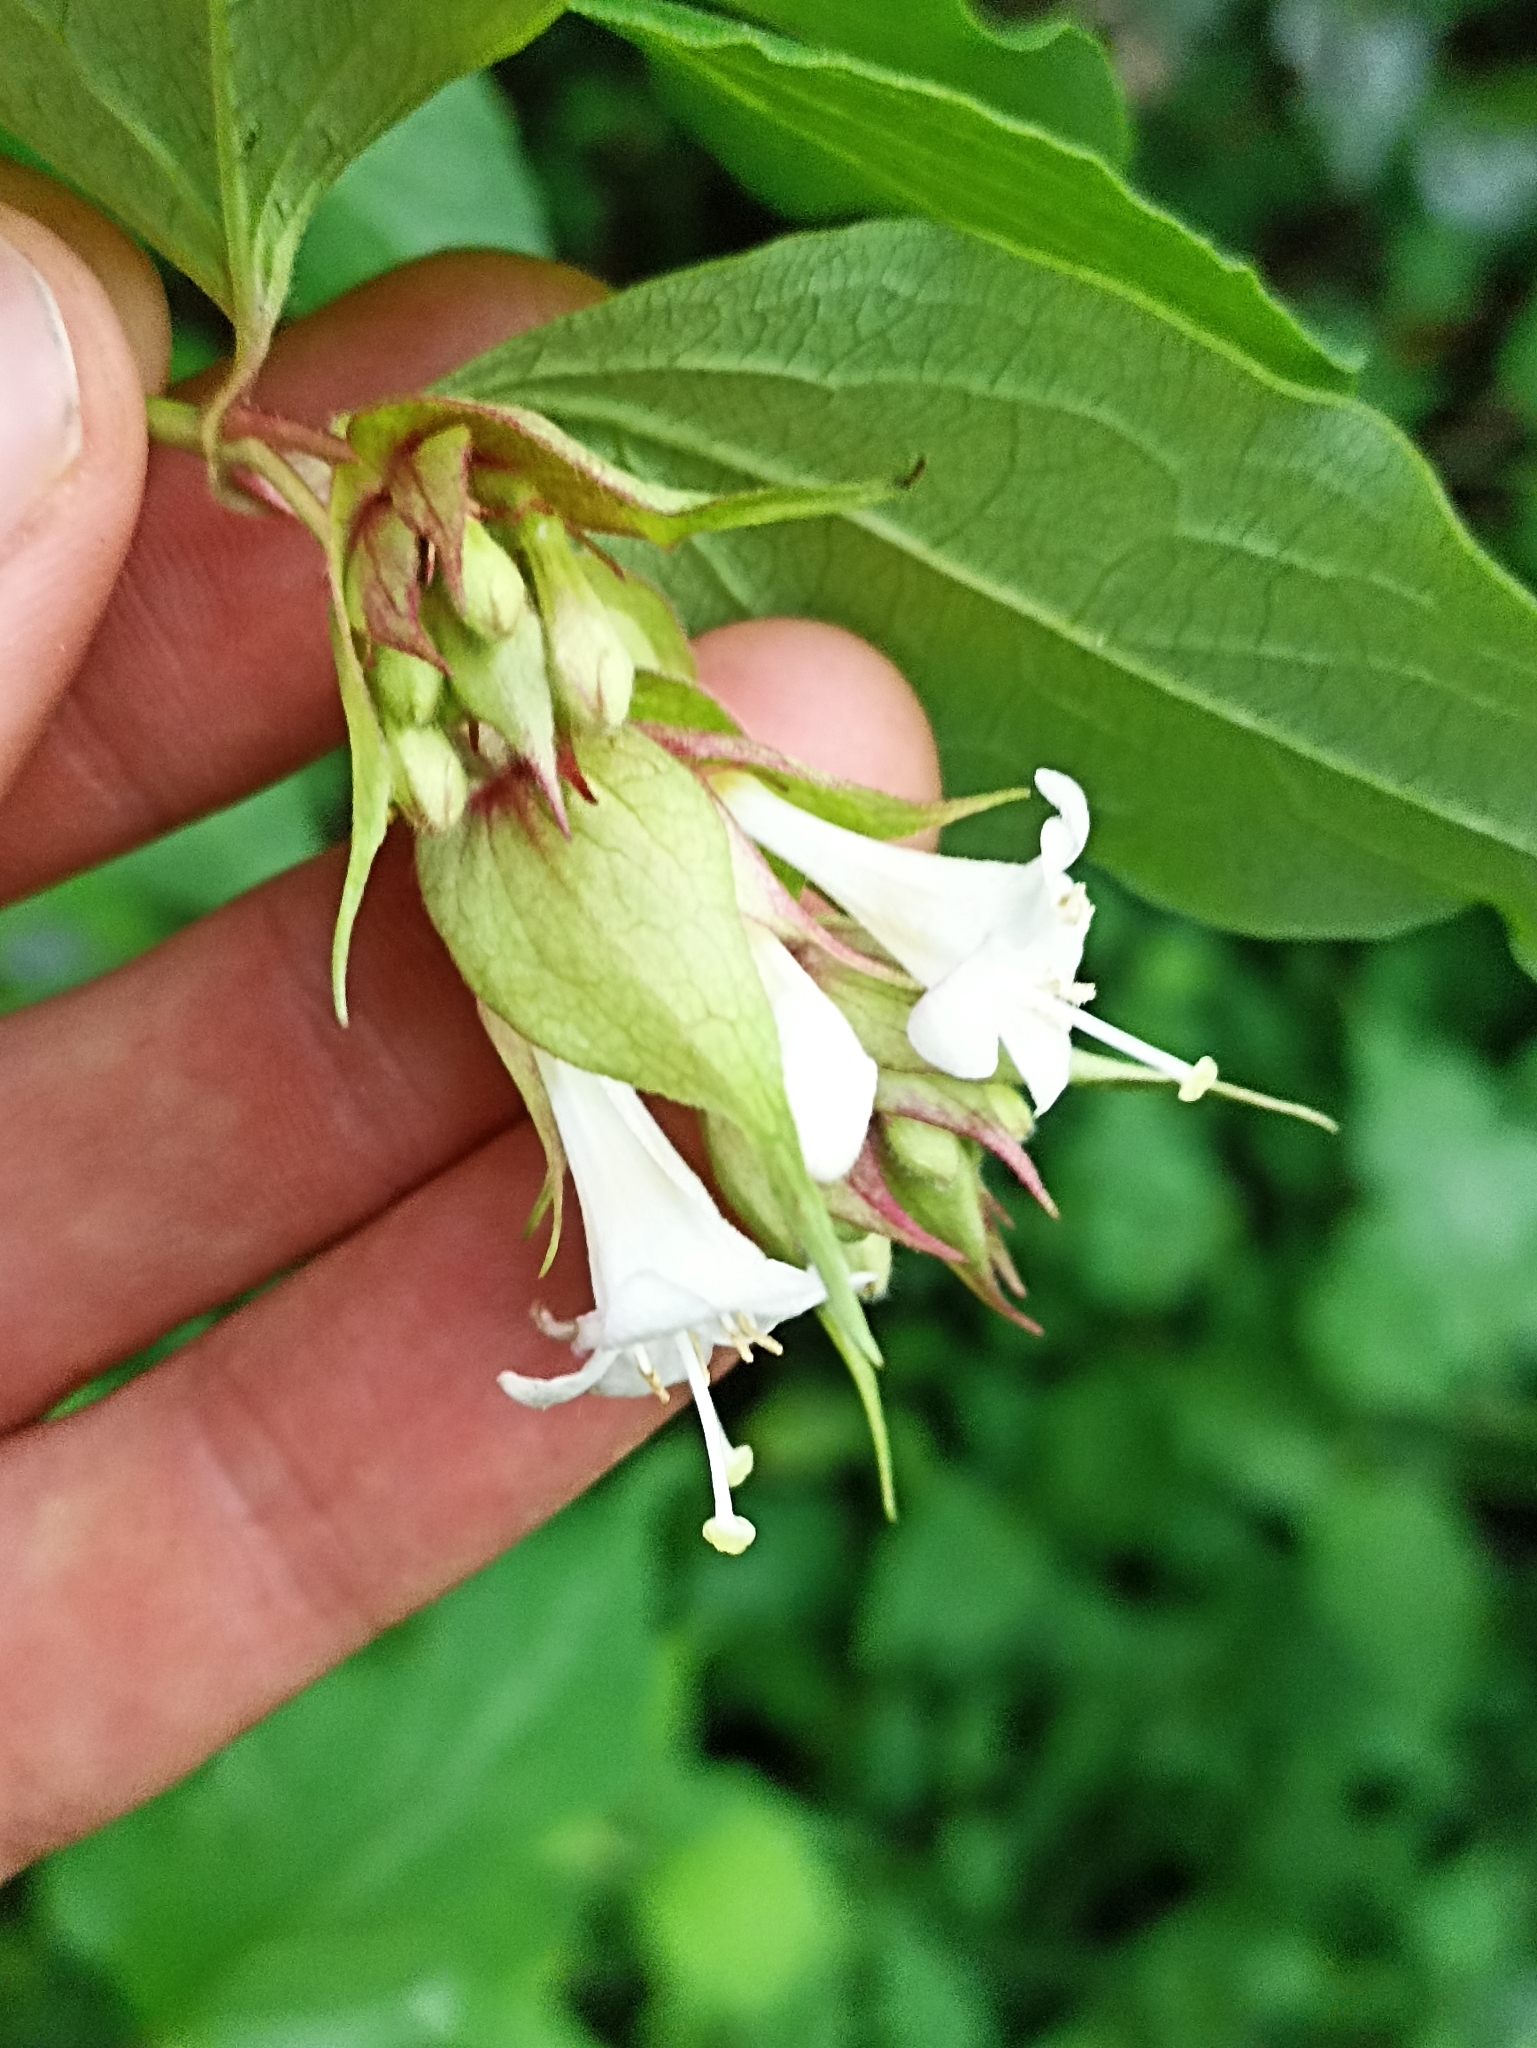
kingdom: Plantae
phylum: Tracheophyta
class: Magnoliopsida
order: Dipsacales
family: Caprifoliaceae
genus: Leycesteria
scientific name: Leycesteria formosa
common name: Himalayan honeysuckle
